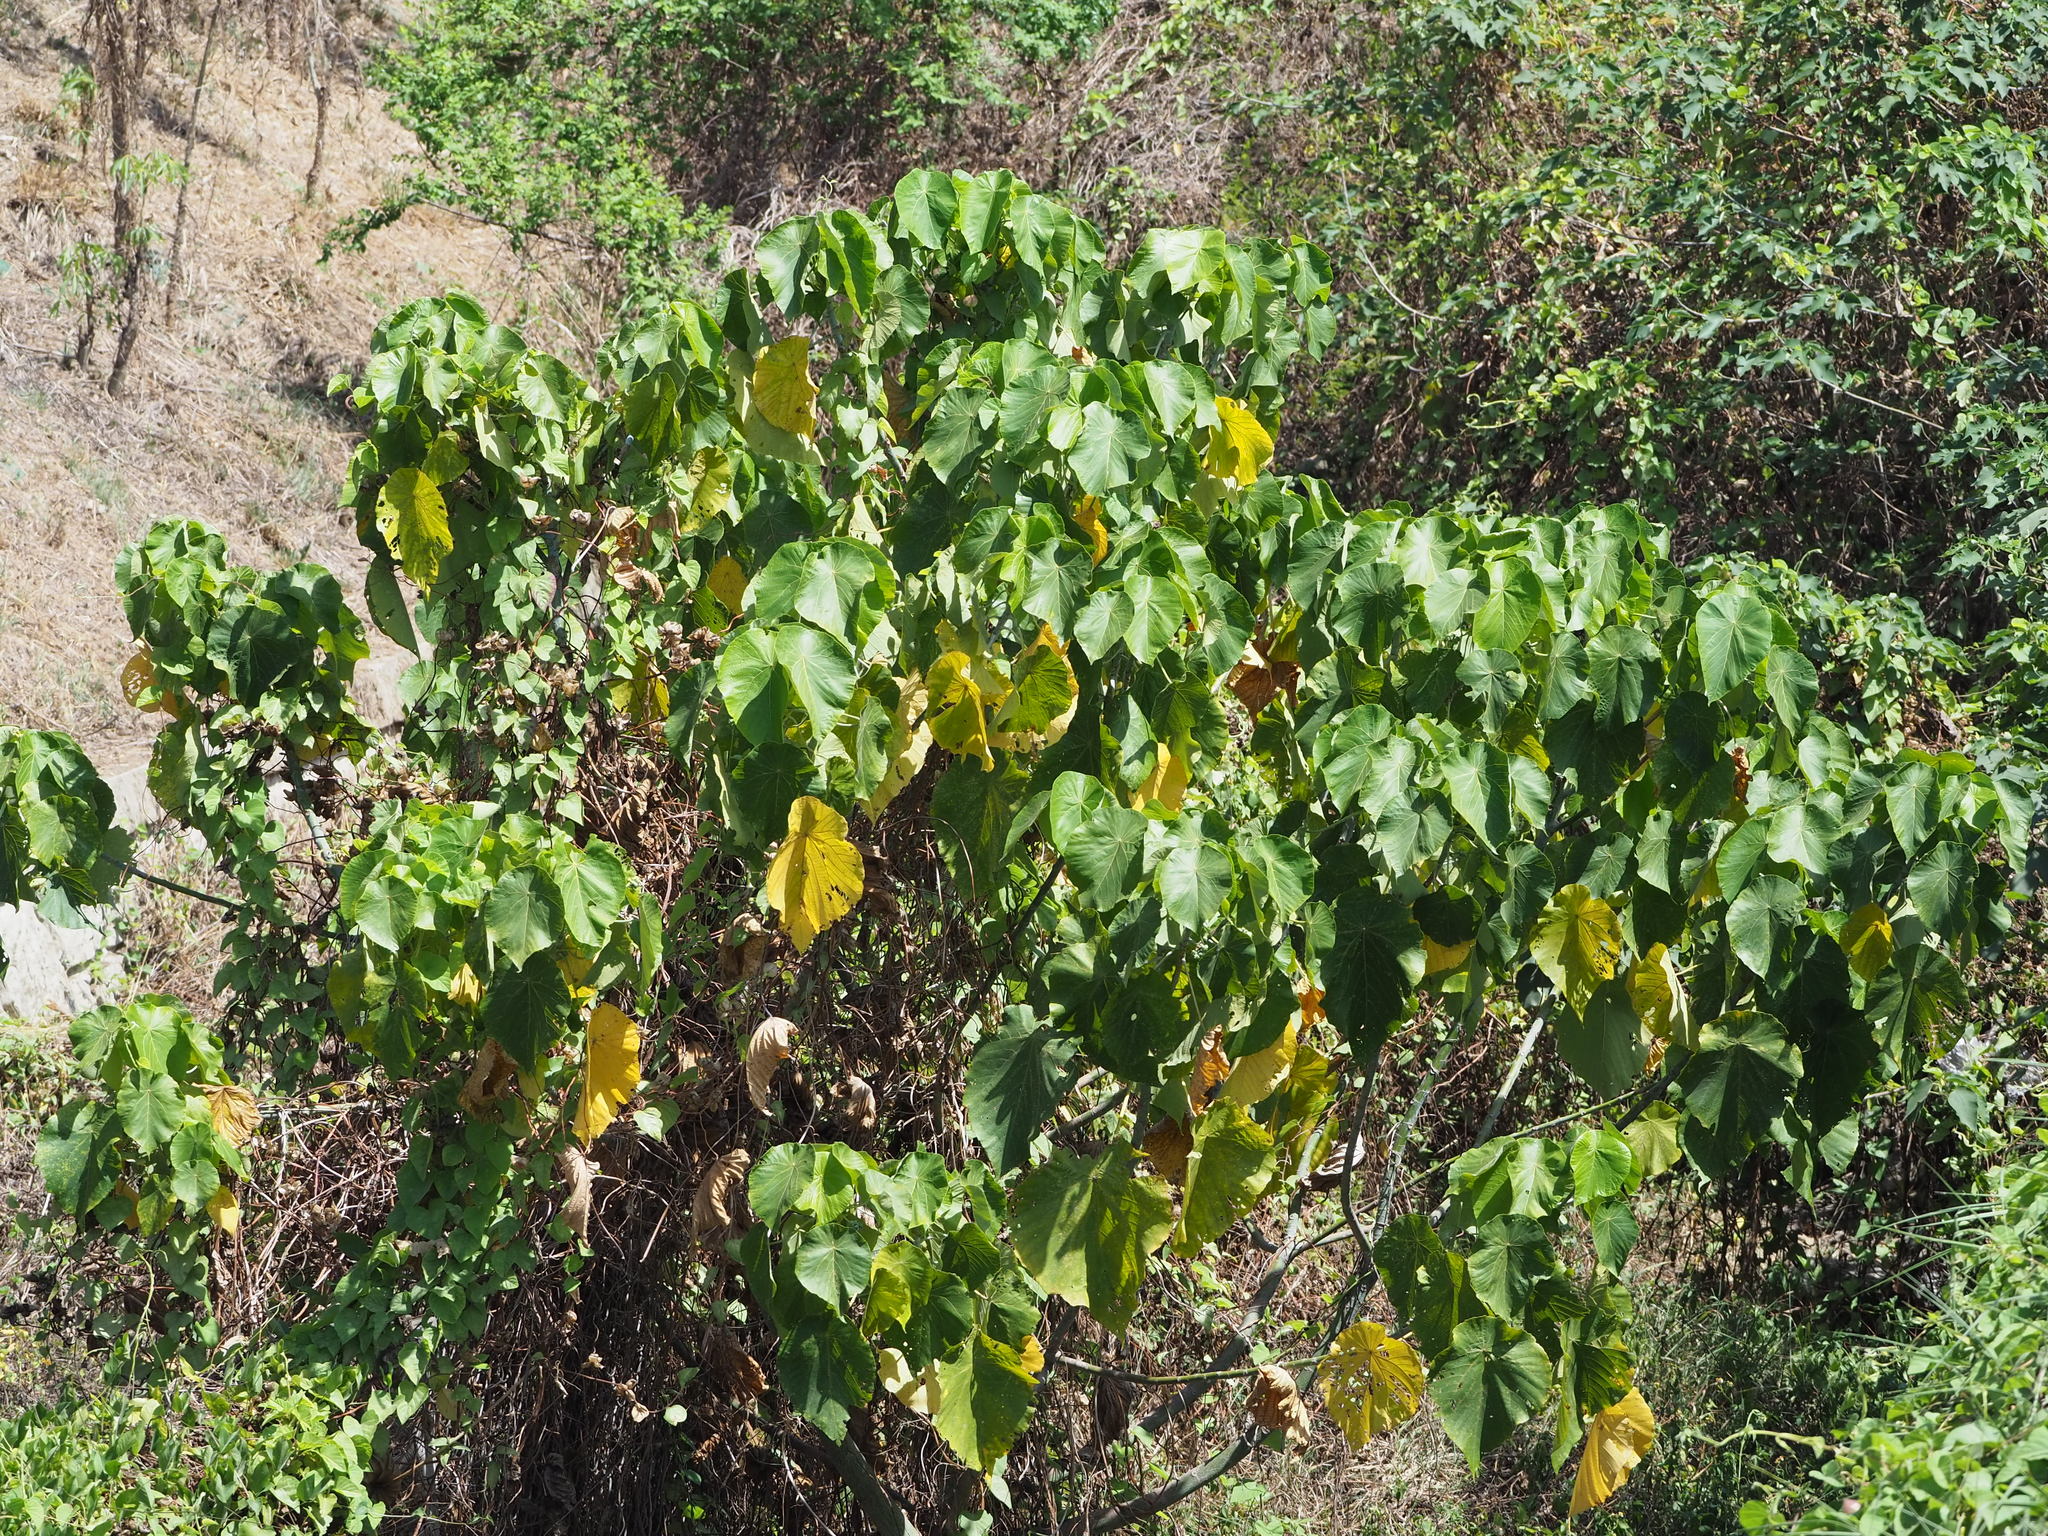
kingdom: Plantae
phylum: Tracheophyta
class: Magnoliopsida
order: Malpighiales
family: Euphorbiaceae
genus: Macaranga
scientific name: Macaranga tanarius
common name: Parasol leaf tree
